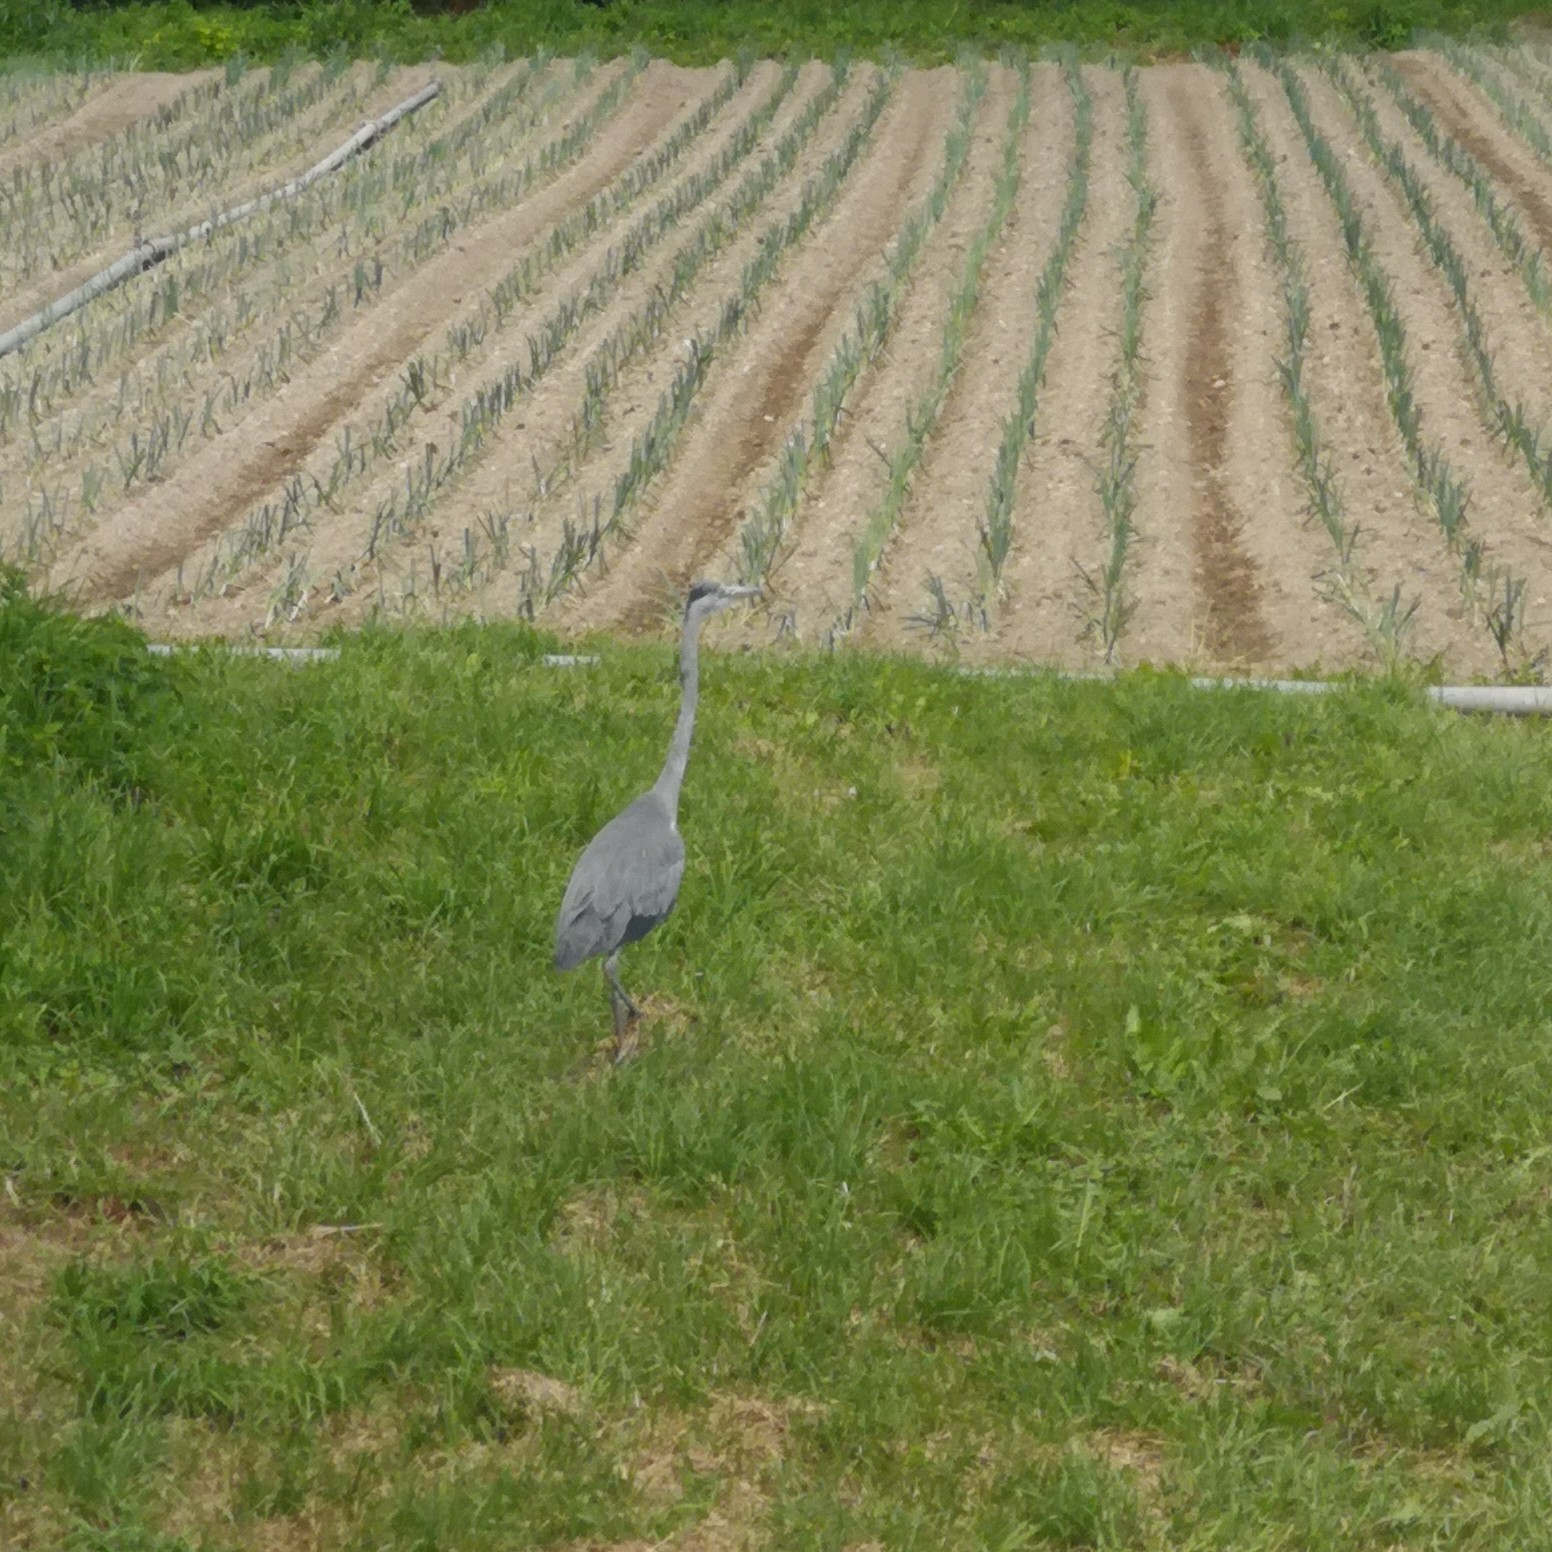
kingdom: Animalia
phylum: Chordata
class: Aves
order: Pelecaniformes
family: Ardeidae
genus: Ardea
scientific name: Ardea cinerea
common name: Grey heron
